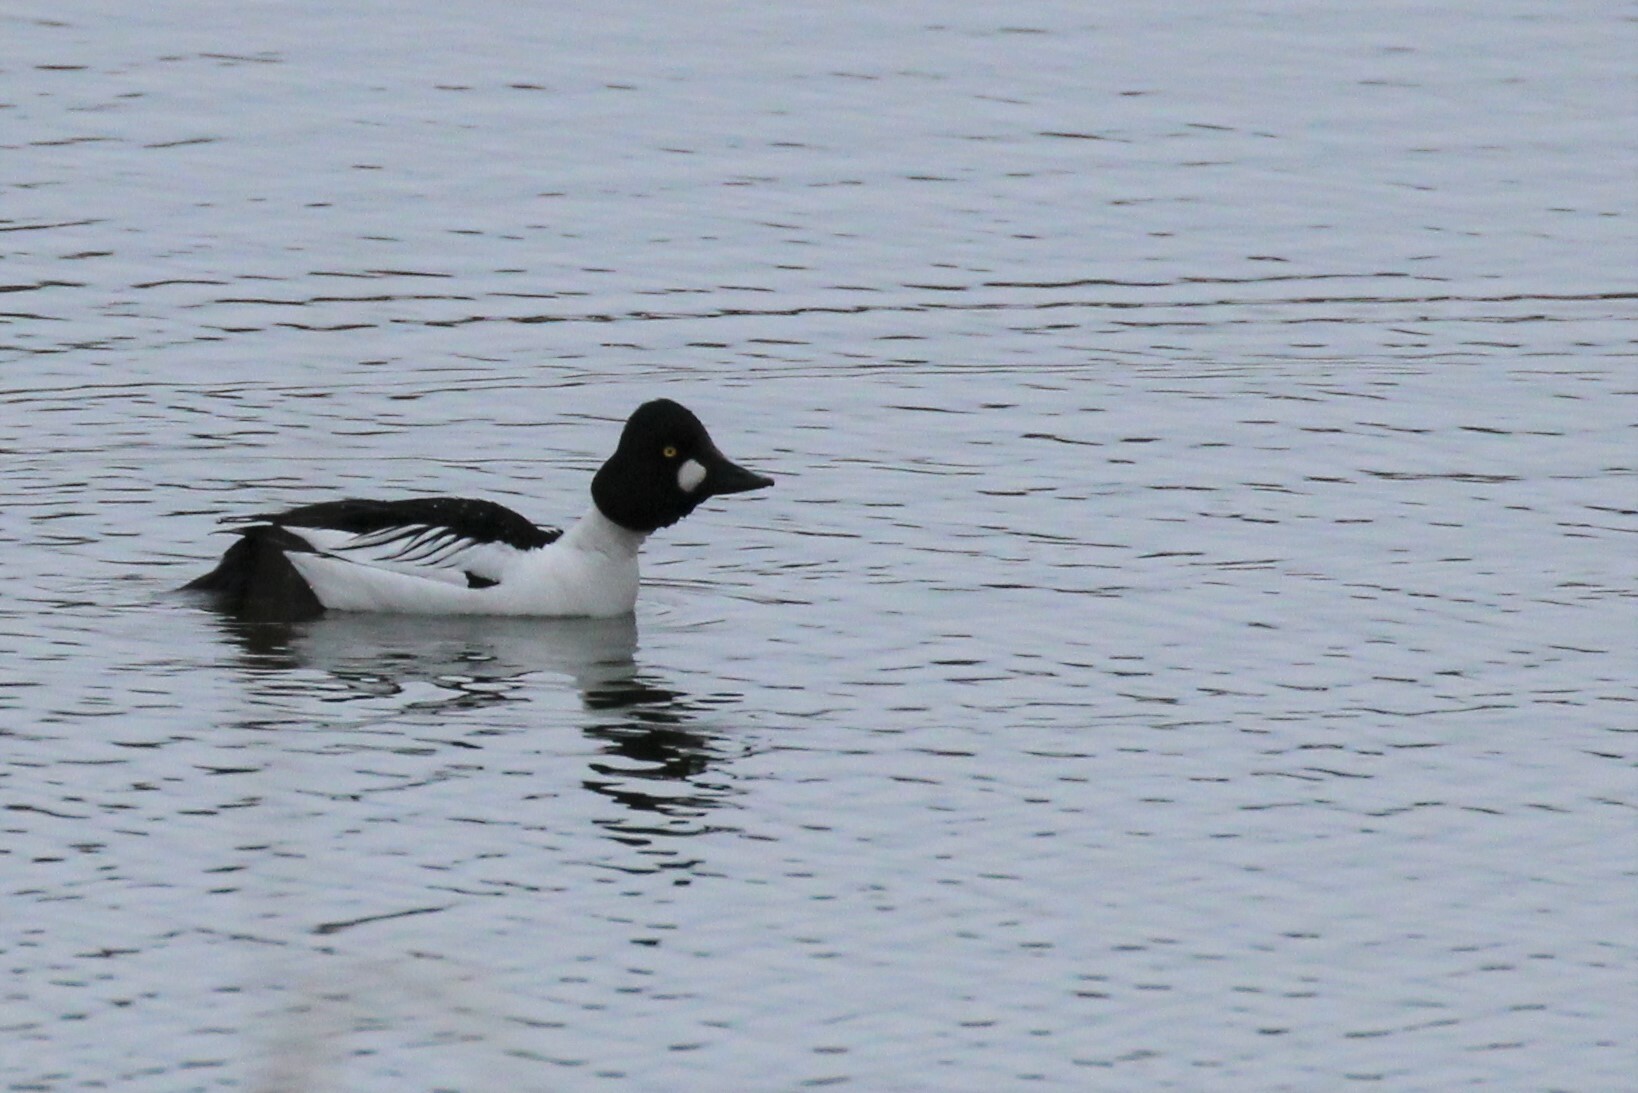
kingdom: Animalia
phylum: Chordata
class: Aves
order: Anseriformes
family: Anatidae
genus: Bucephala
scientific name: Bucephala clangula
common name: Common goldeneye
